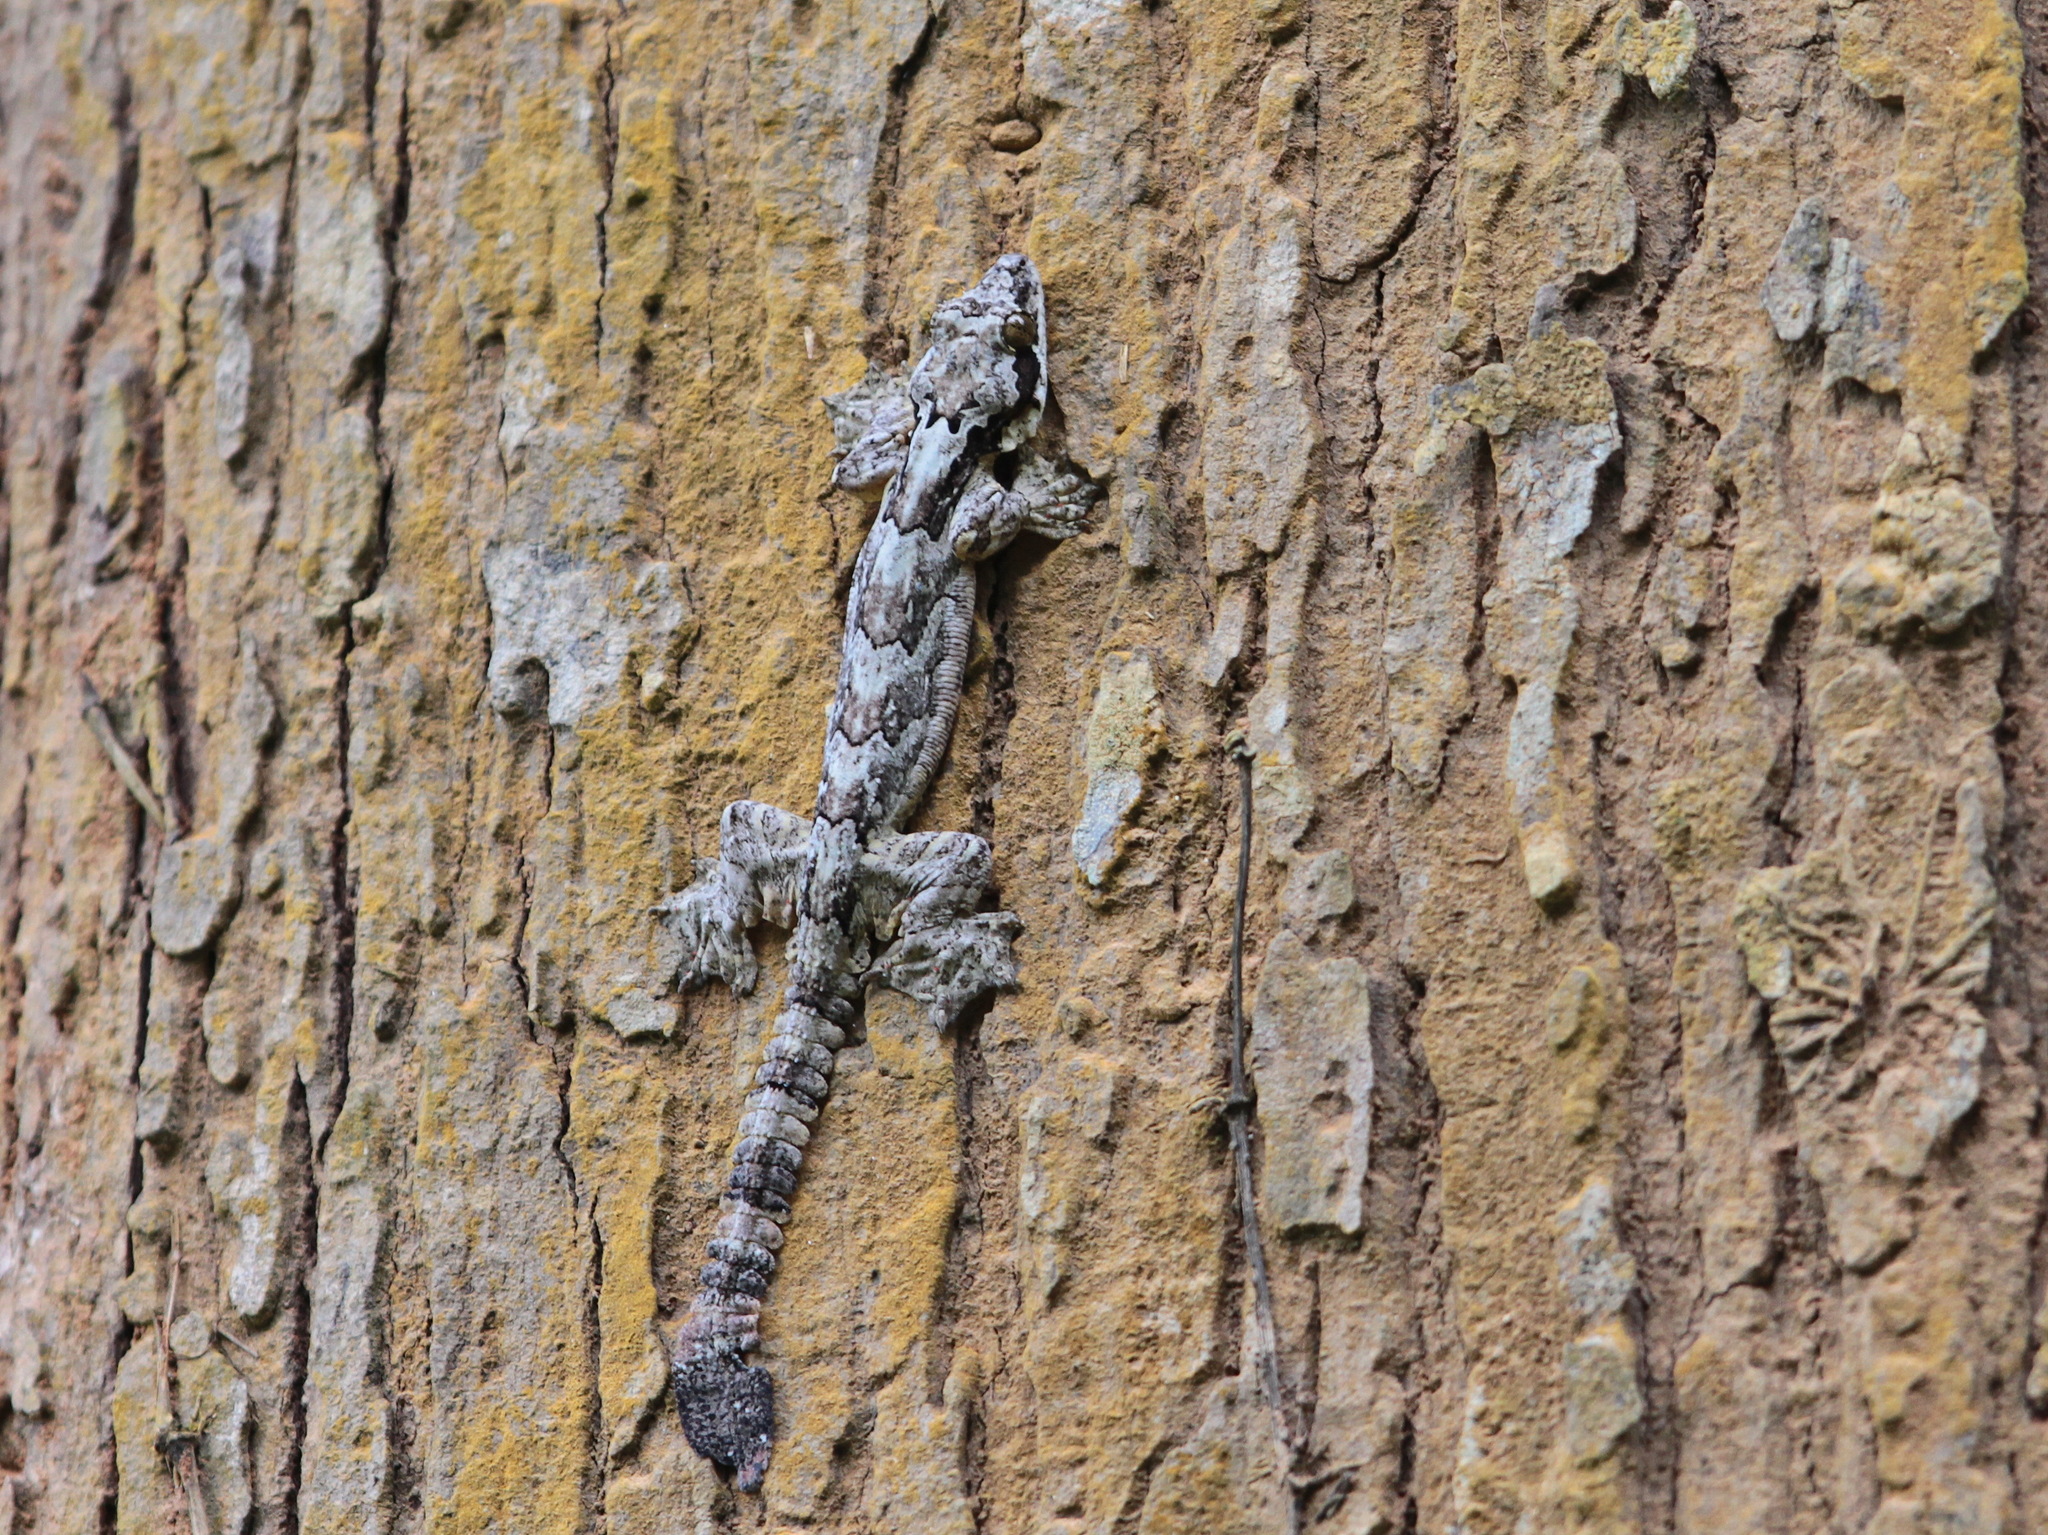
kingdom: Animalia
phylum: Chordata
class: Squamata
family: Gekkonidae
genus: Gekko
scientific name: Gekko kuhli
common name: Gliding gecko
